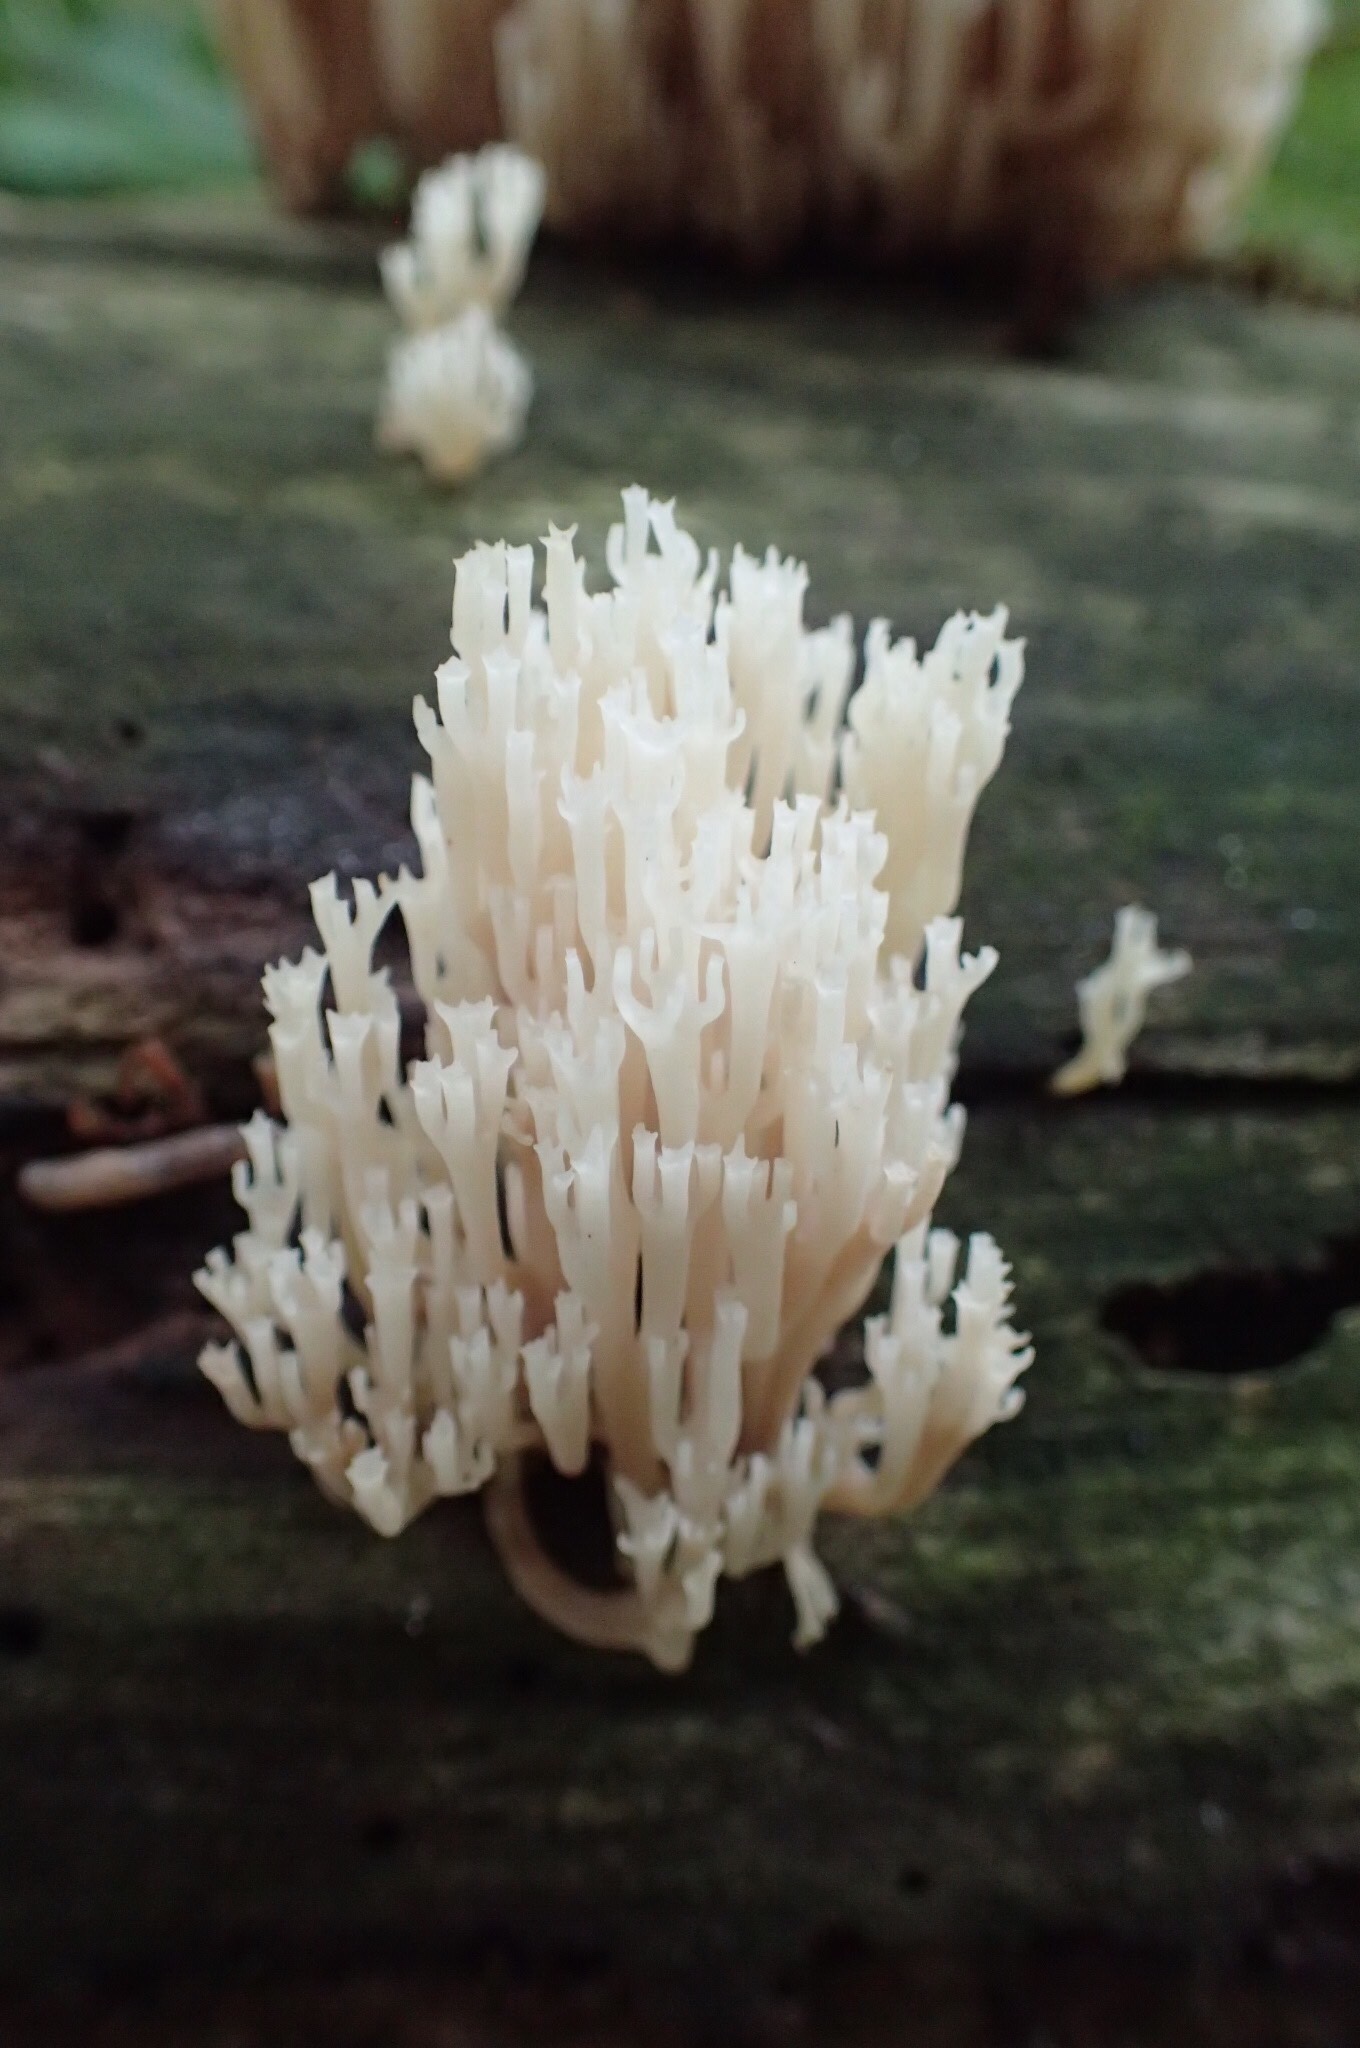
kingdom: Fungi
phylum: Basidiomycota
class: Agaricomycetes
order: Russulales
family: Auriscalpiaceae
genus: Artomyces
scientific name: Artomyces pyxidatus
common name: Crown-tipped coral fungus
